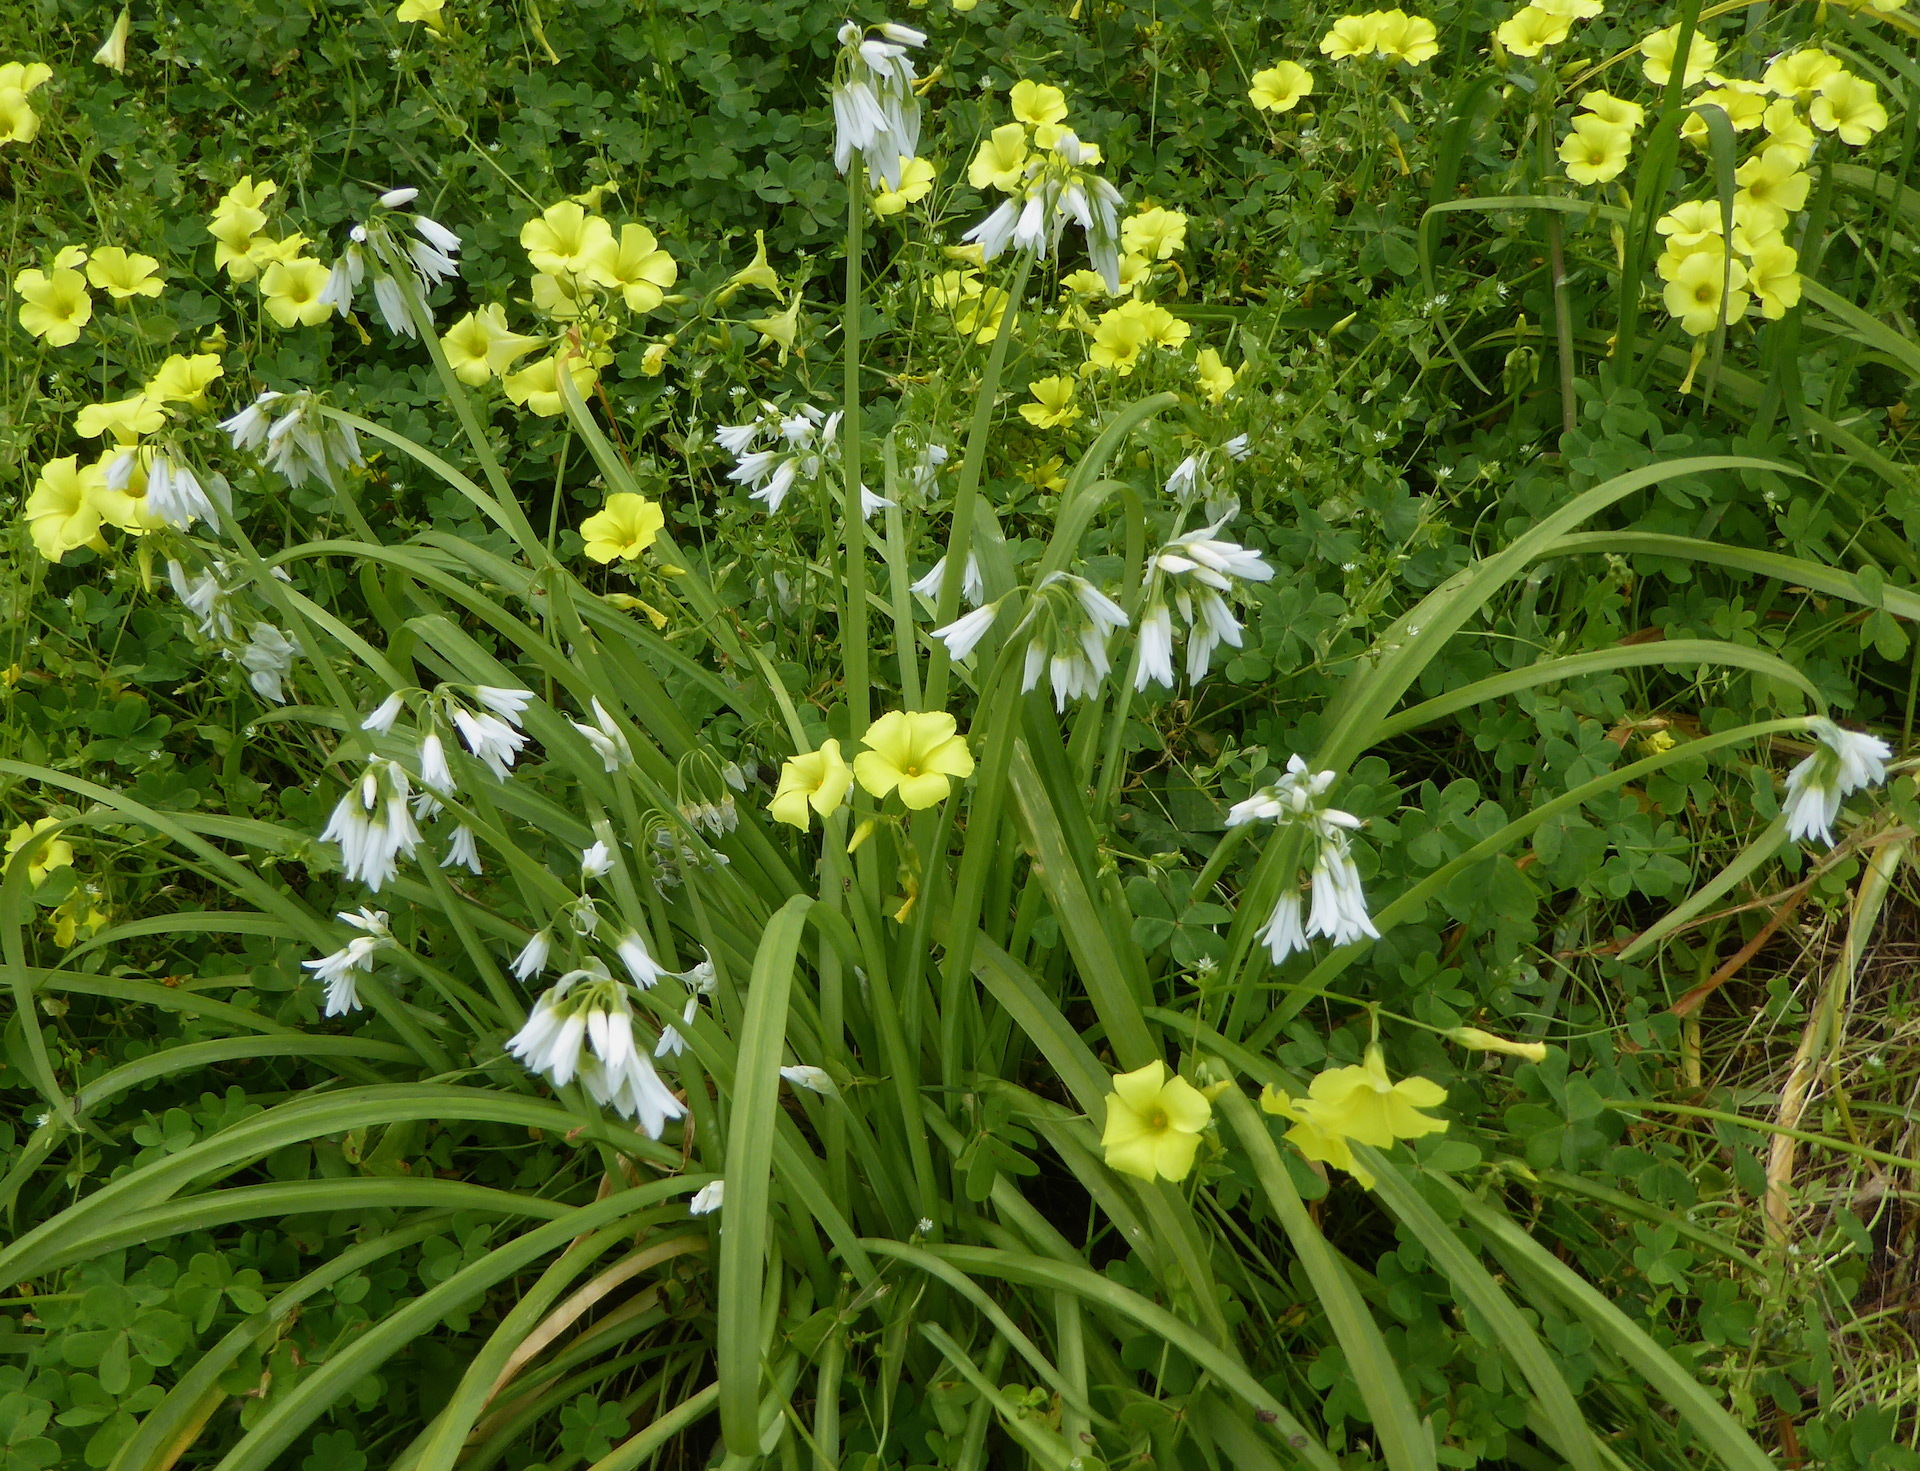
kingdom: Plantae
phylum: Tracheophyta
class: Liliopsida
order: Asparagales
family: Amaryllidaceae
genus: Allium
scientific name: Allium triquetrum
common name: Three-cornered garlic
